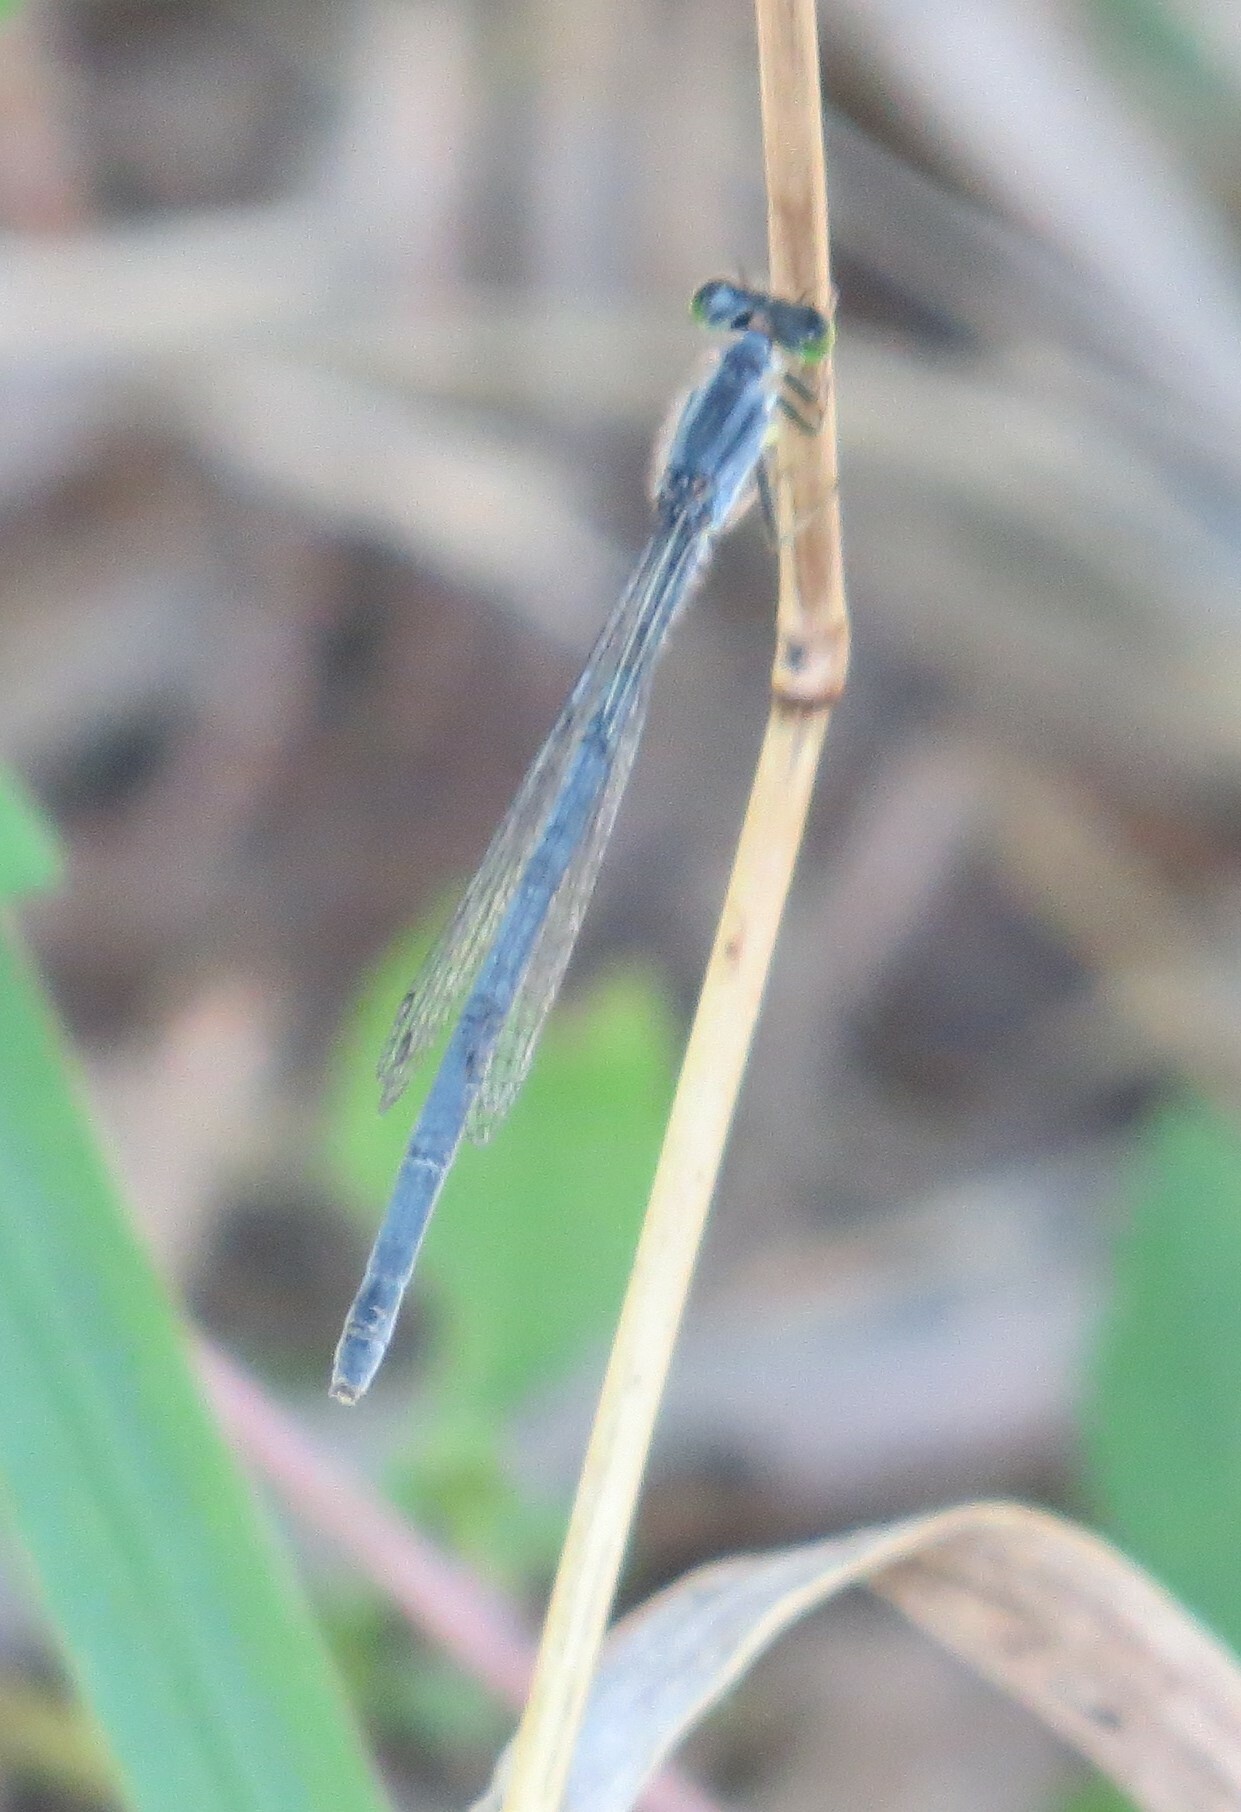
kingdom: Animalia
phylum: Arthropoda
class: Insecta
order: Odonata
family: Coenagrionidae
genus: Ischnura
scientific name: Ischnura verticalis
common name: Eastern forktail
